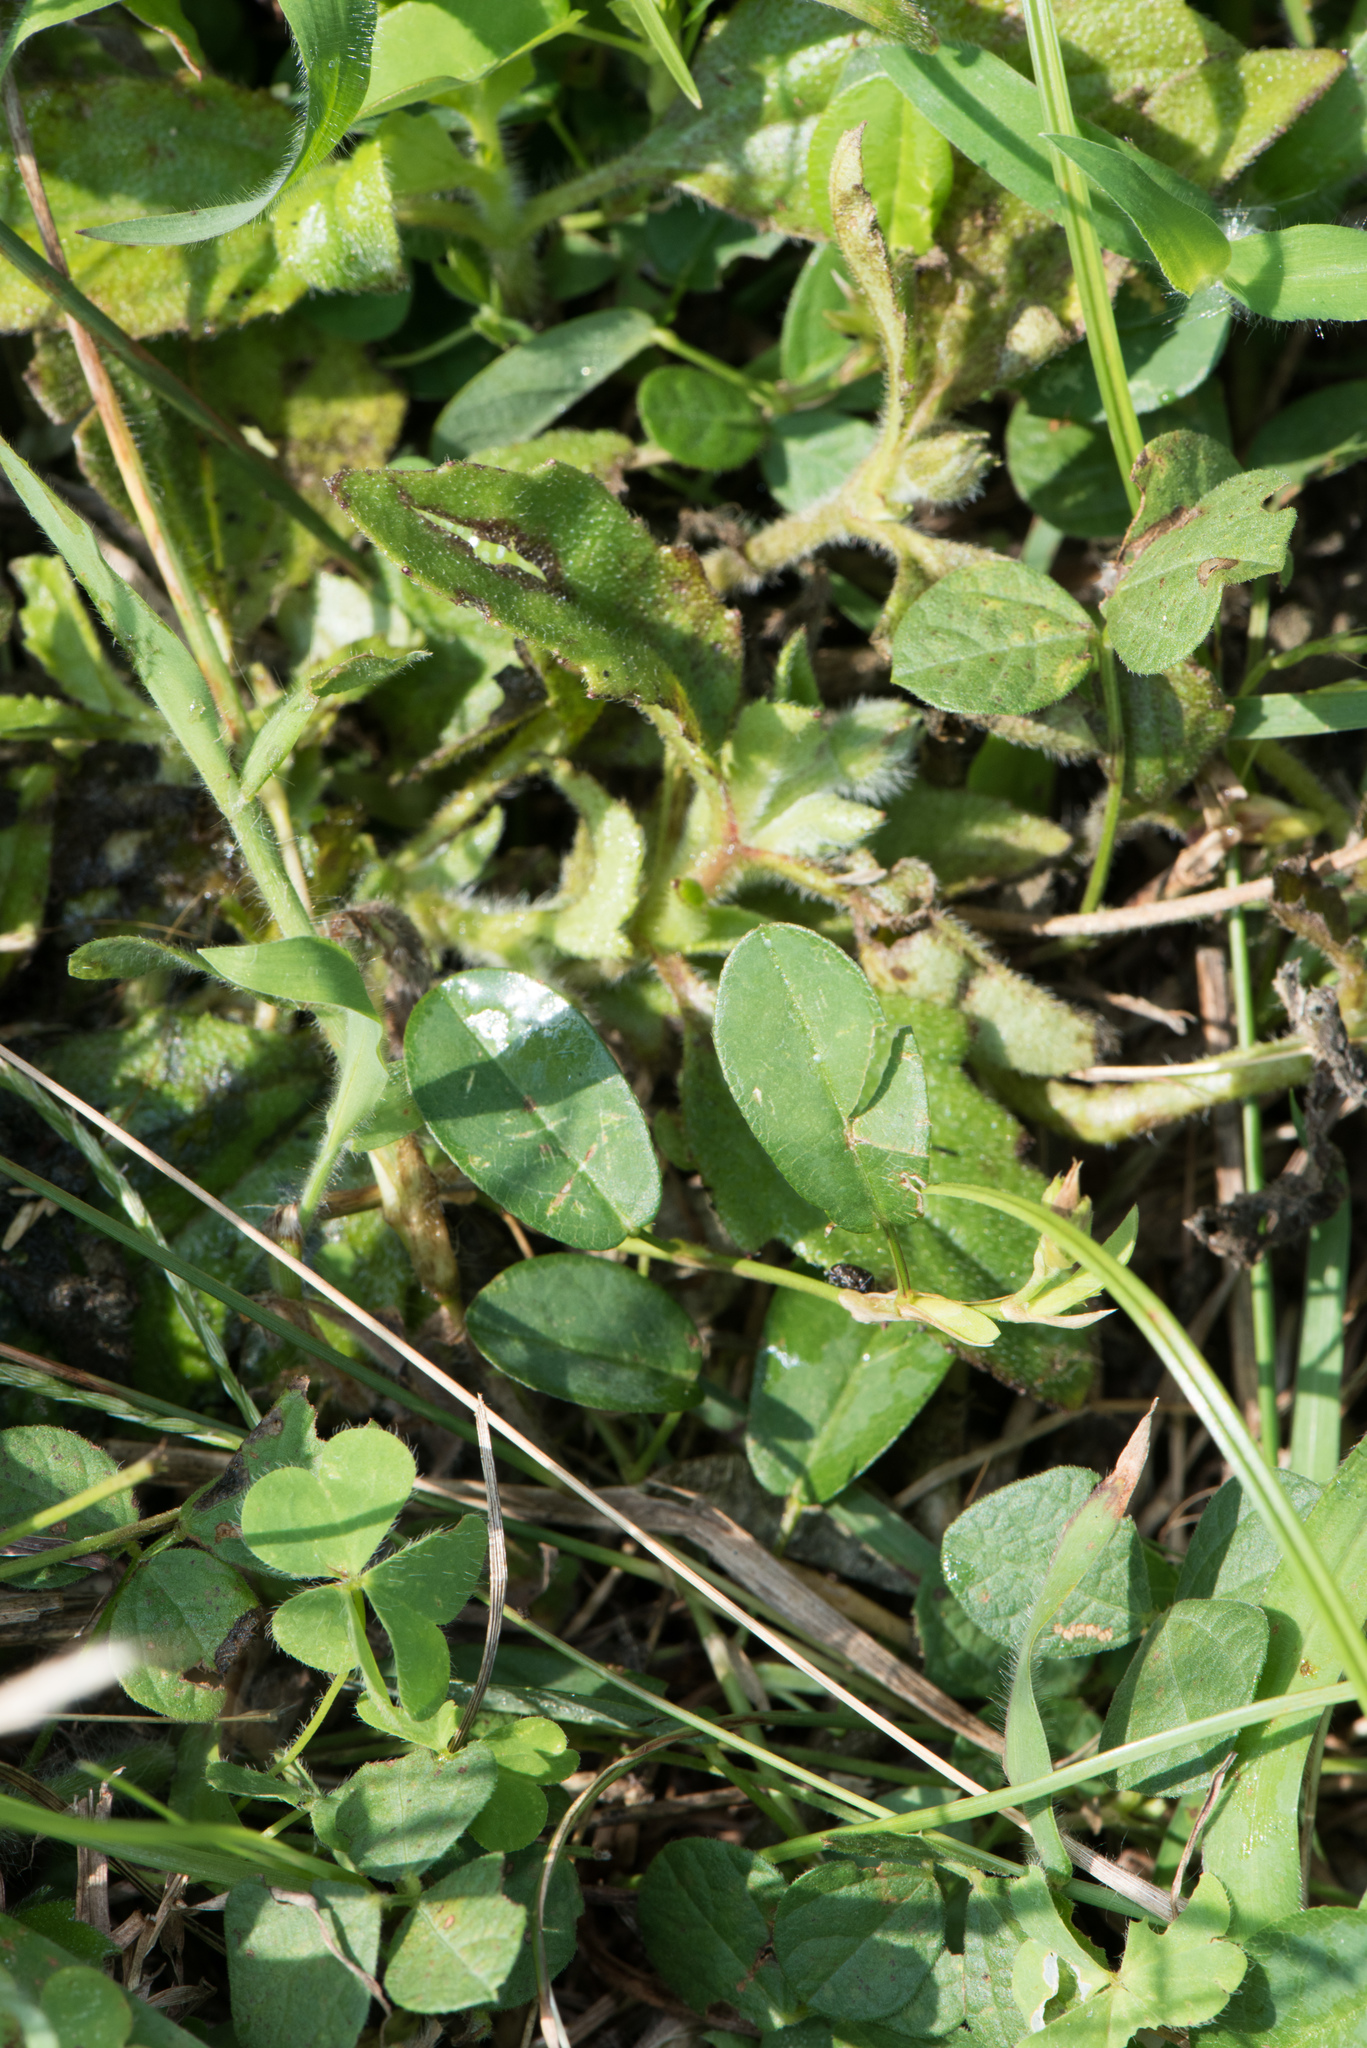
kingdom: Plantae
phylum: Tracheophyta
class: Magnoliopsida
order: Fabales
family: Fabaceae
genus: Alysicarpus
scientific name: Alysicarpus vaginalis
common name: White moneywort
